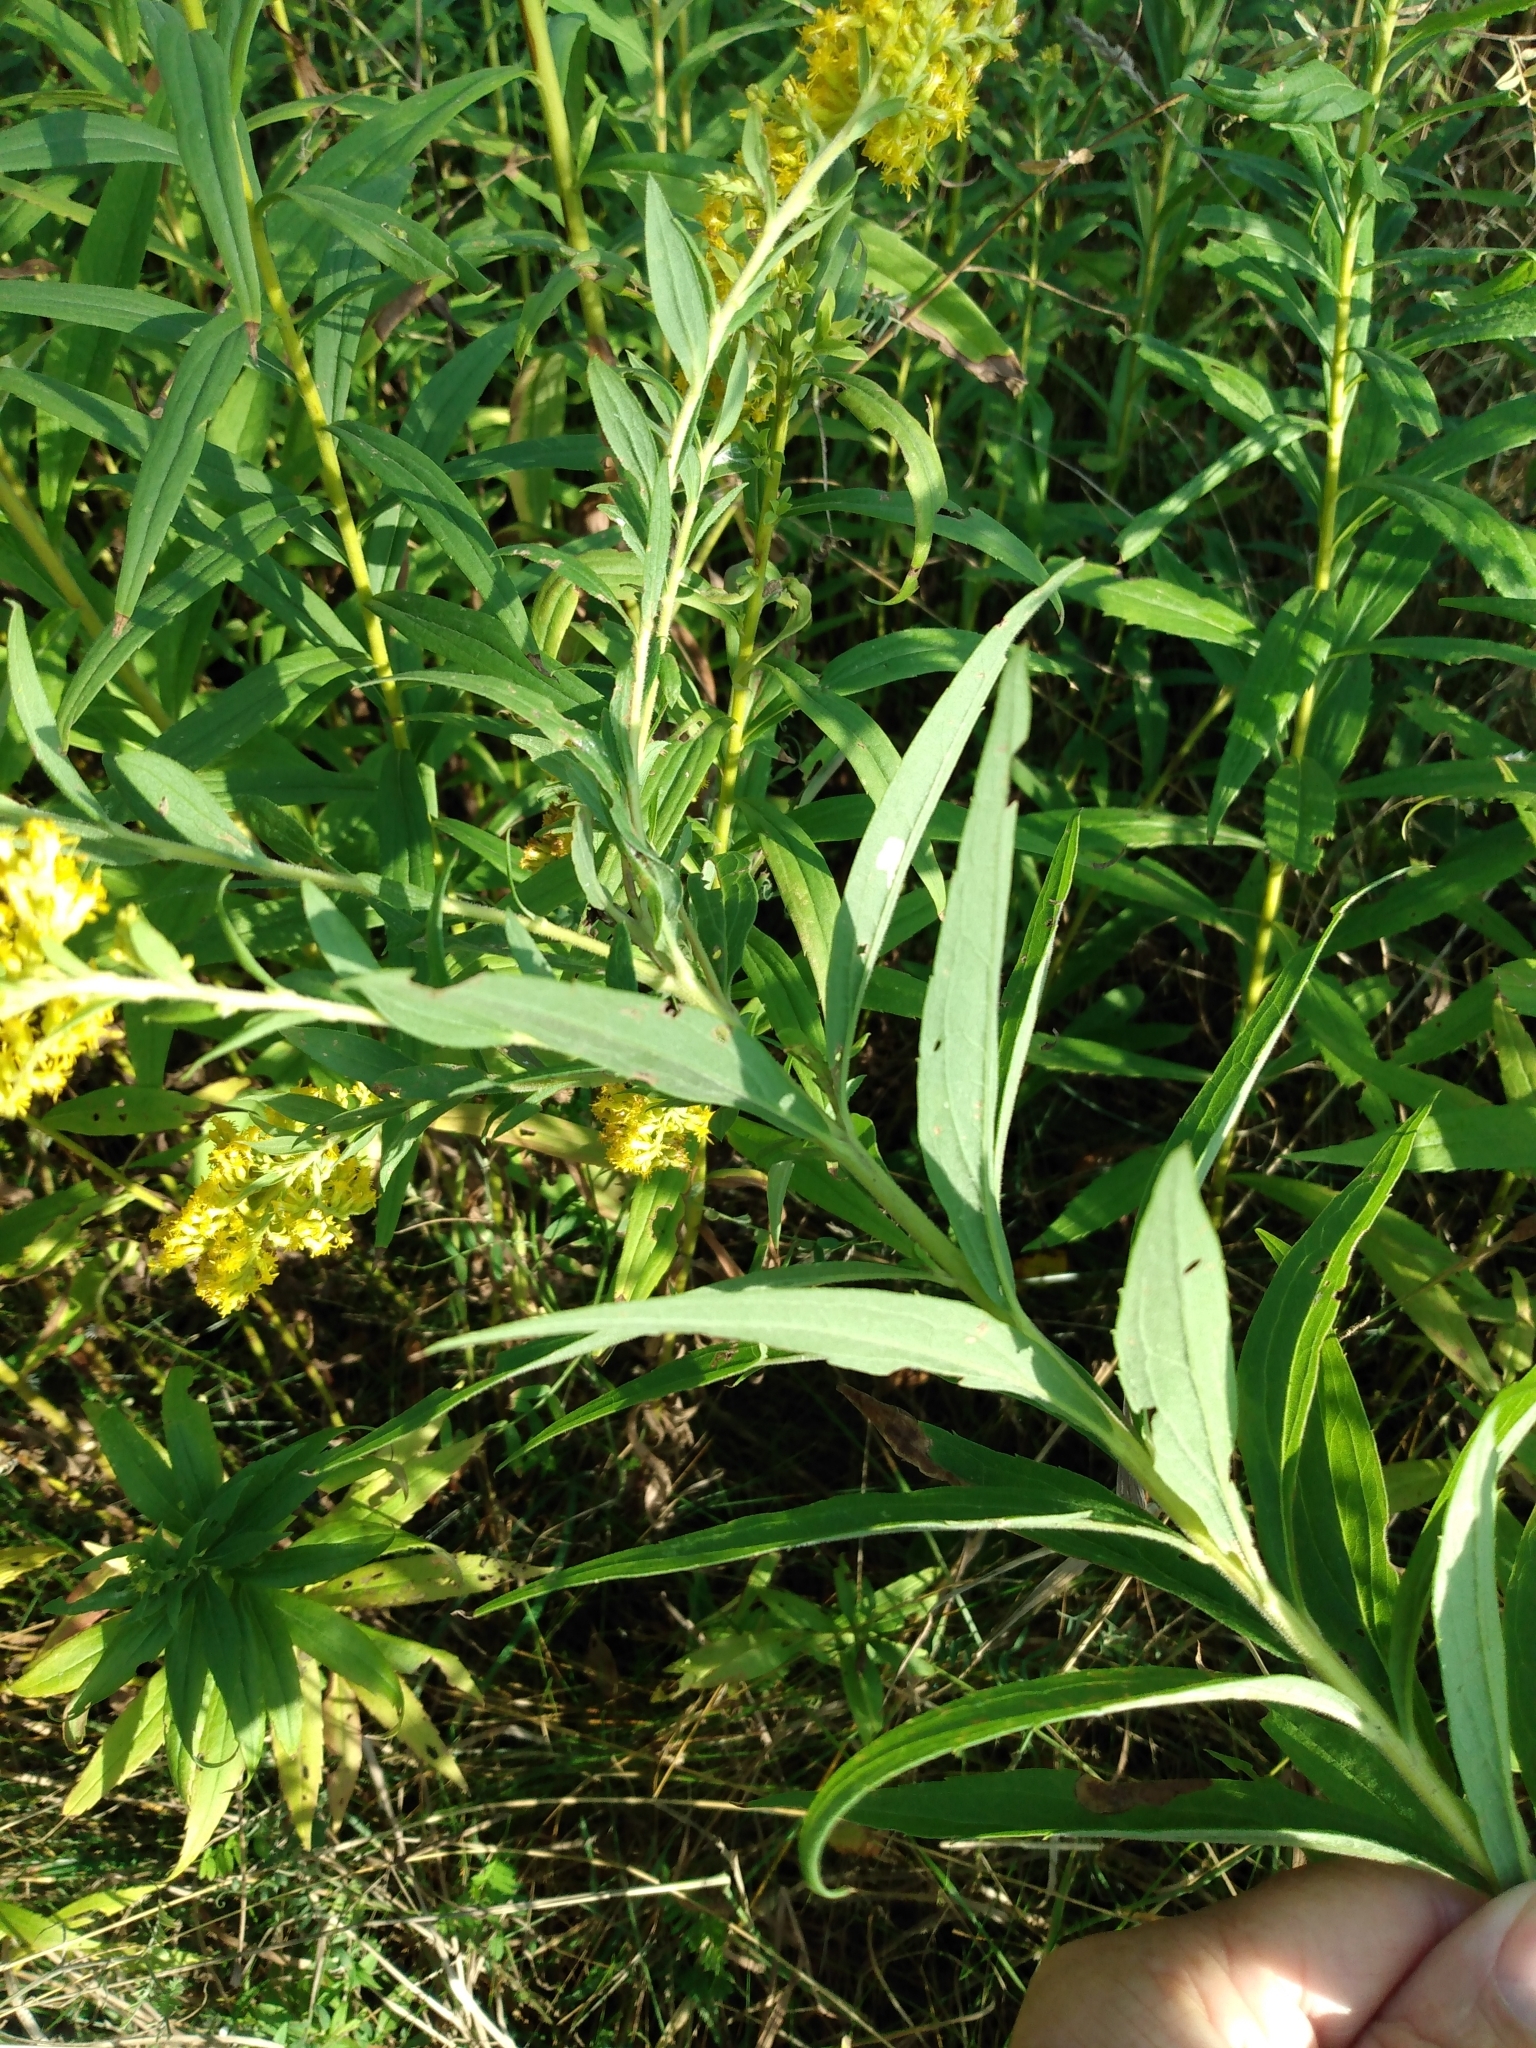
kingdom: Plantae
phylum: Tracheophyta
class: Magnoliopsida
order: Asterales
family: Asteraceae
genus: Solidago
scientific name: Solidago canadensis
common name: Canada goldenrod
